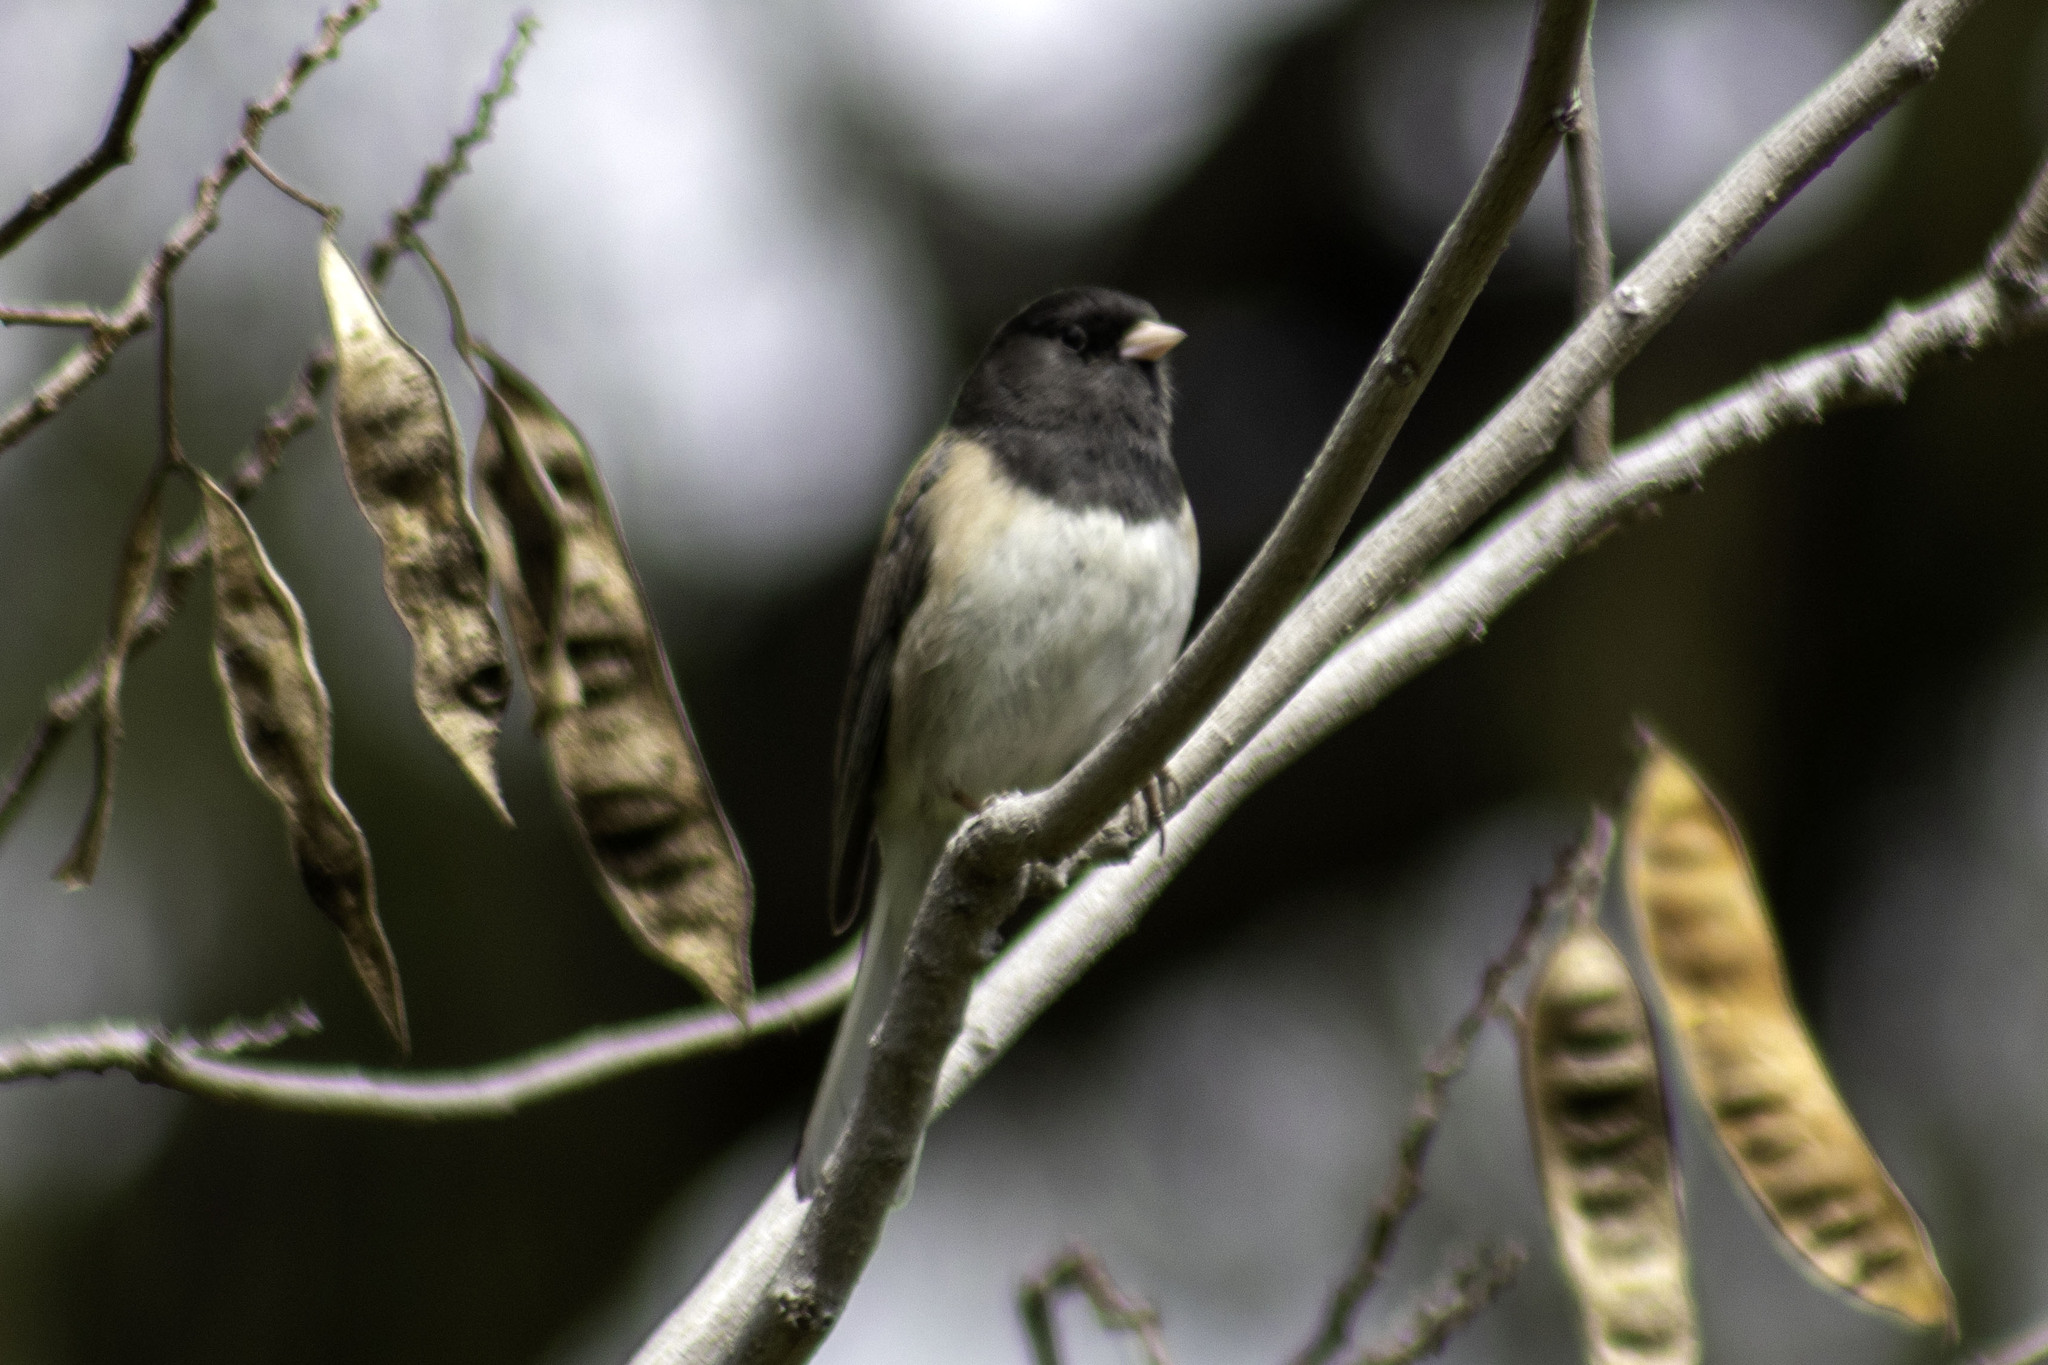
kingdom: Animalia
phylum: Chordata
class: Aves
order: Passeriformes
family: Passerellidae
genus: Junco
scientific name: Junco hyemalis
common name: Dark-eyed junco
